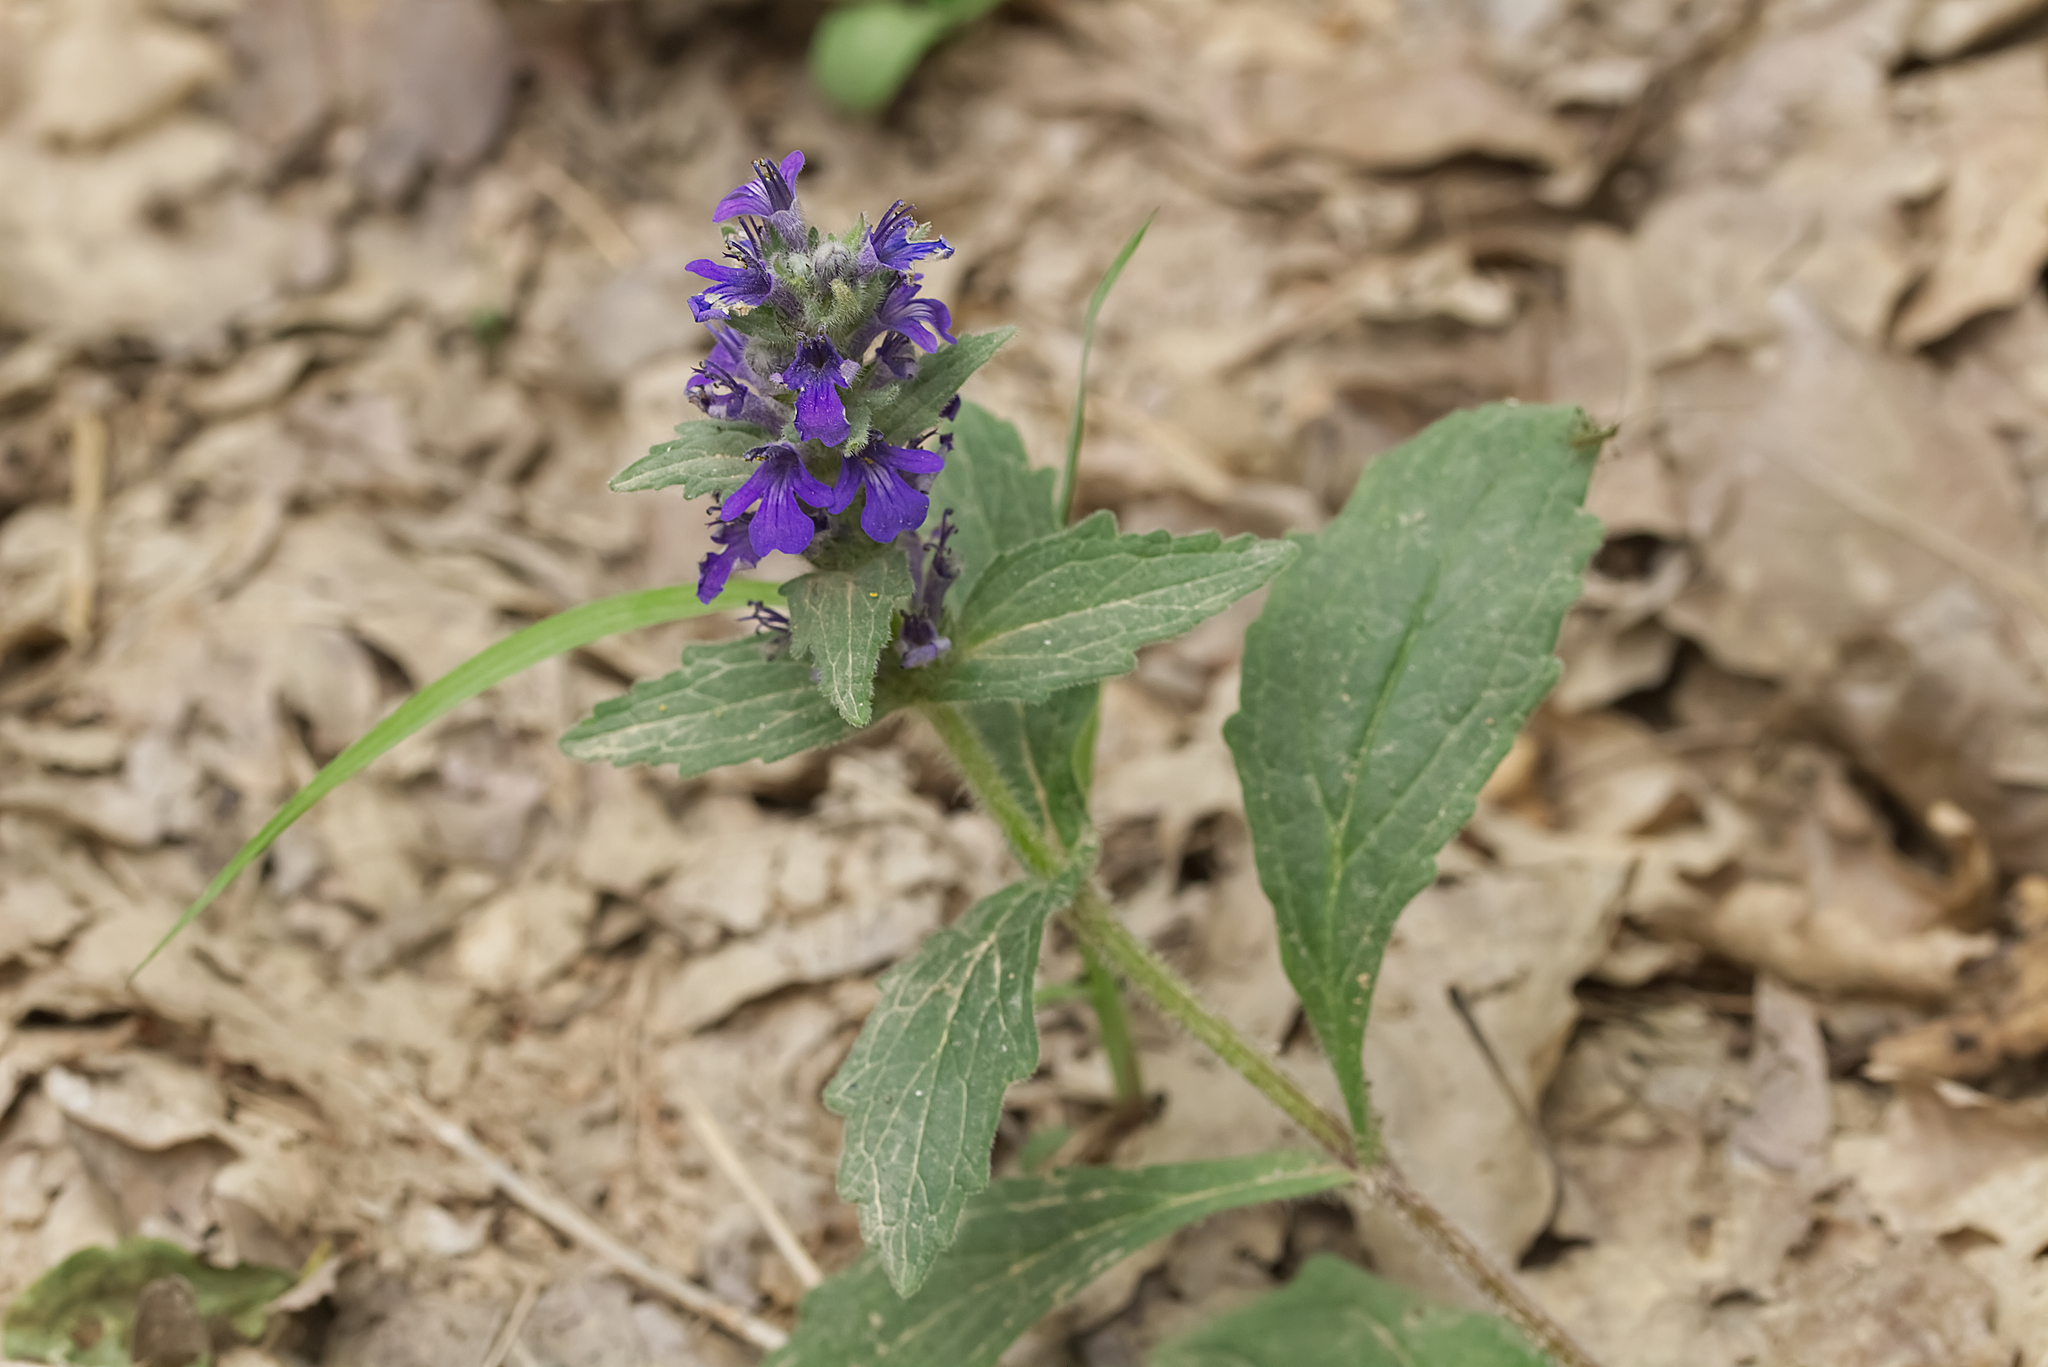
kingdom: Plantae
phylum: Tracheophyta
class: Magnoliopsida
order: Lamiales
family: Lamiaceae
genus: Ajuga
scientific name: Ajuga genevensis
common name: Blue bugle
